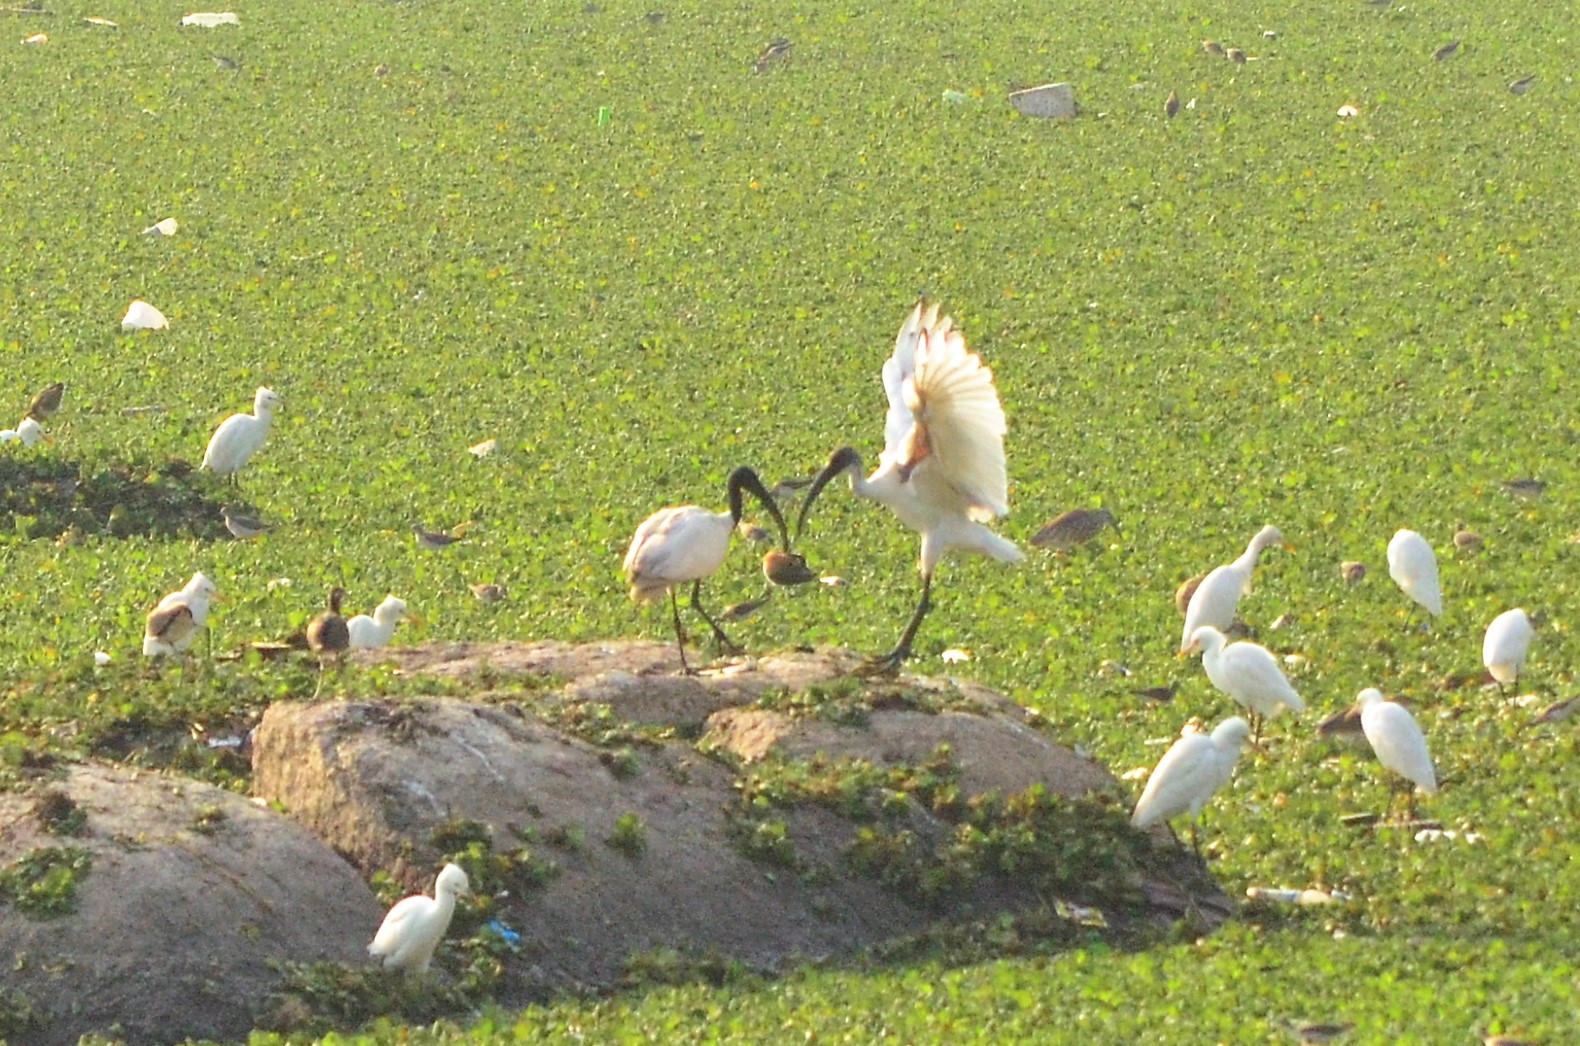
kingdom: Animalia
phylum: Chordata
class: Aves
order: Pelecaniformes
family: Threskiornithidae
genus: Threskiornis
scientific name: Threskiornis melanocephalus
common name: Black-headed ibis
